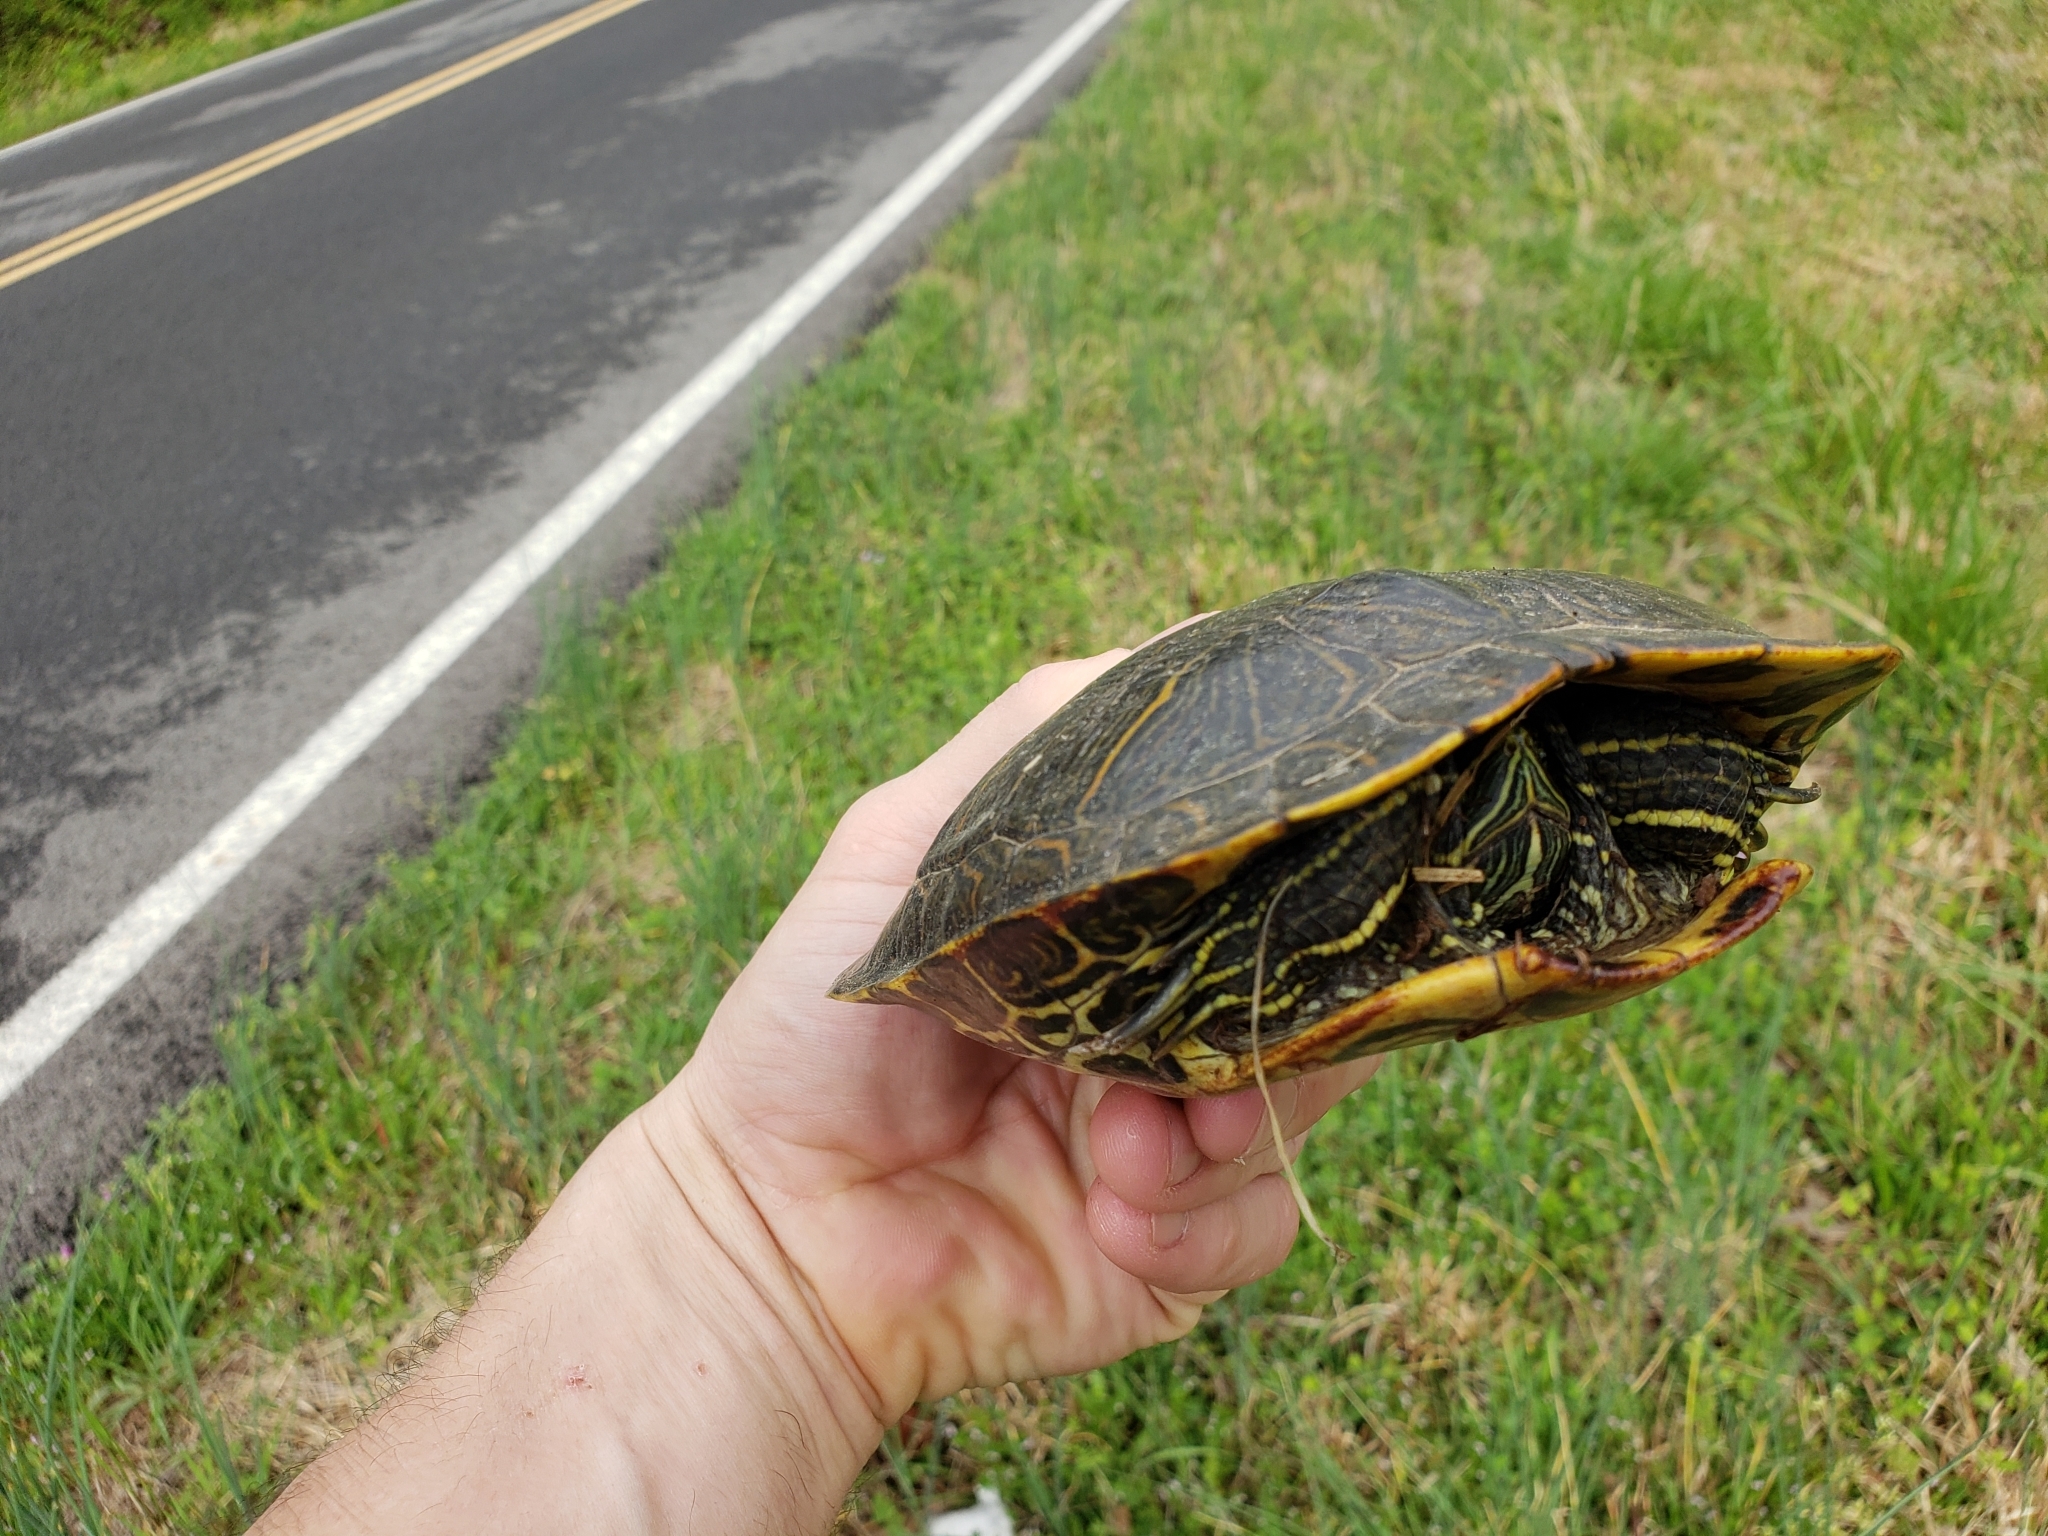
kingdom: Animalia
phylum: Chordata
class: Testudines
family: Emydidae
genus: Trachemys
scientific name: Trachemys scripta
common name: Slider
